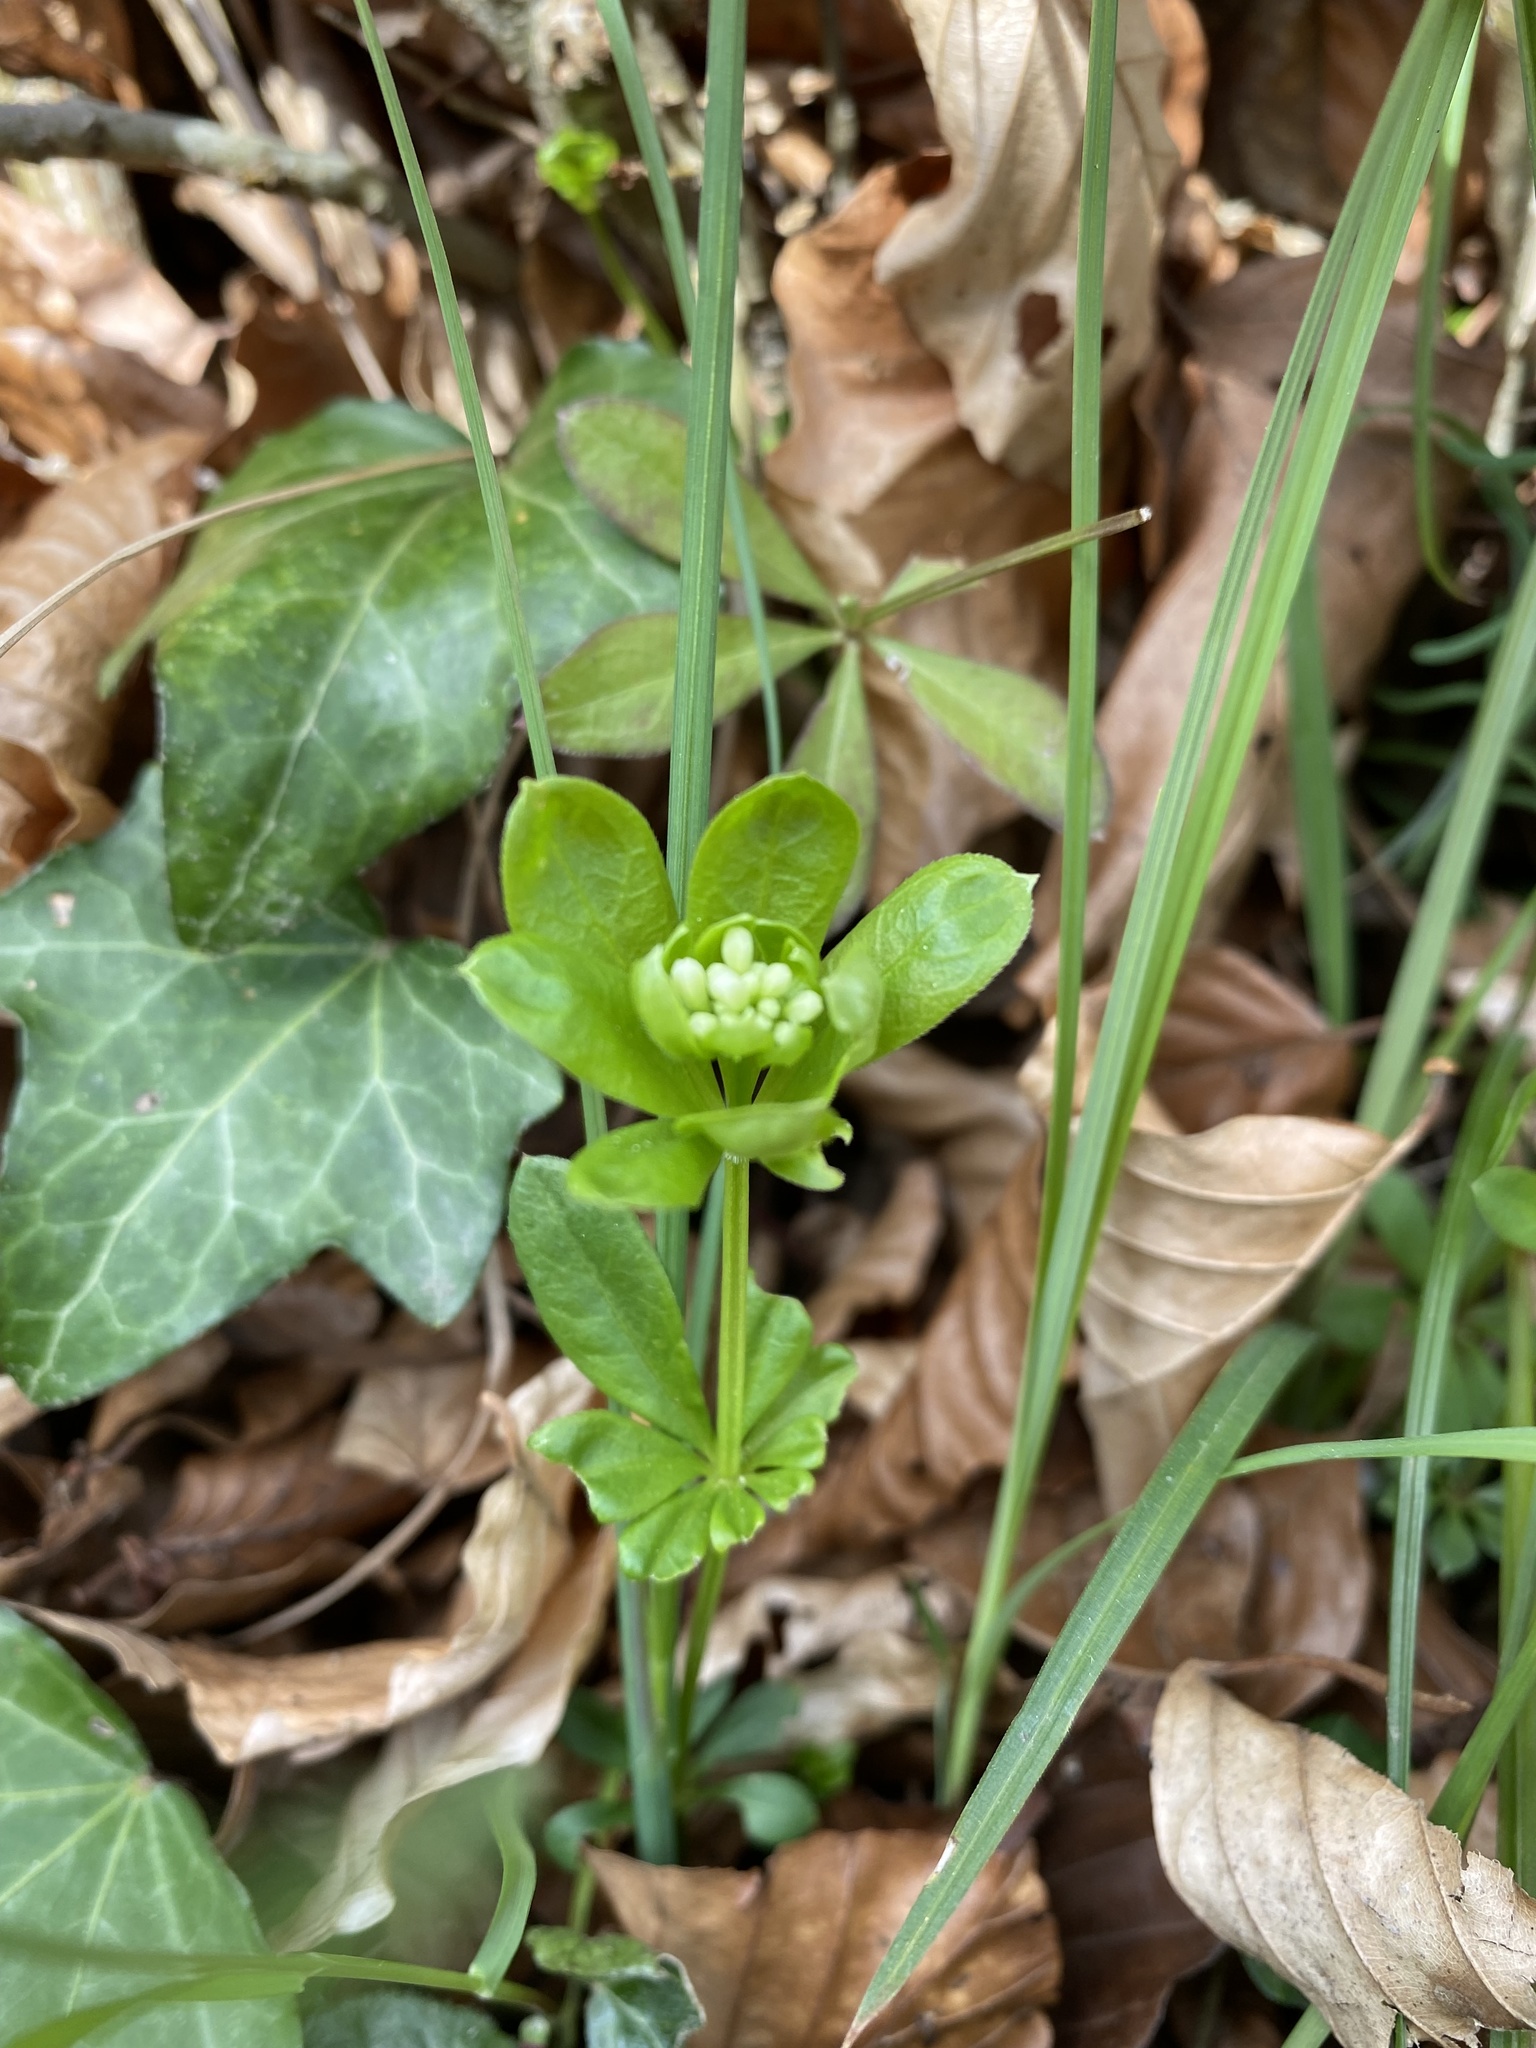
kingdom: Plantae
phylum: Tracheophyta
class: Magnoliopsida
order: Gentianales
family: Rubiaceae
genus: Galium
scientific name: Galium odoratum
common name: Sweet woodruff
